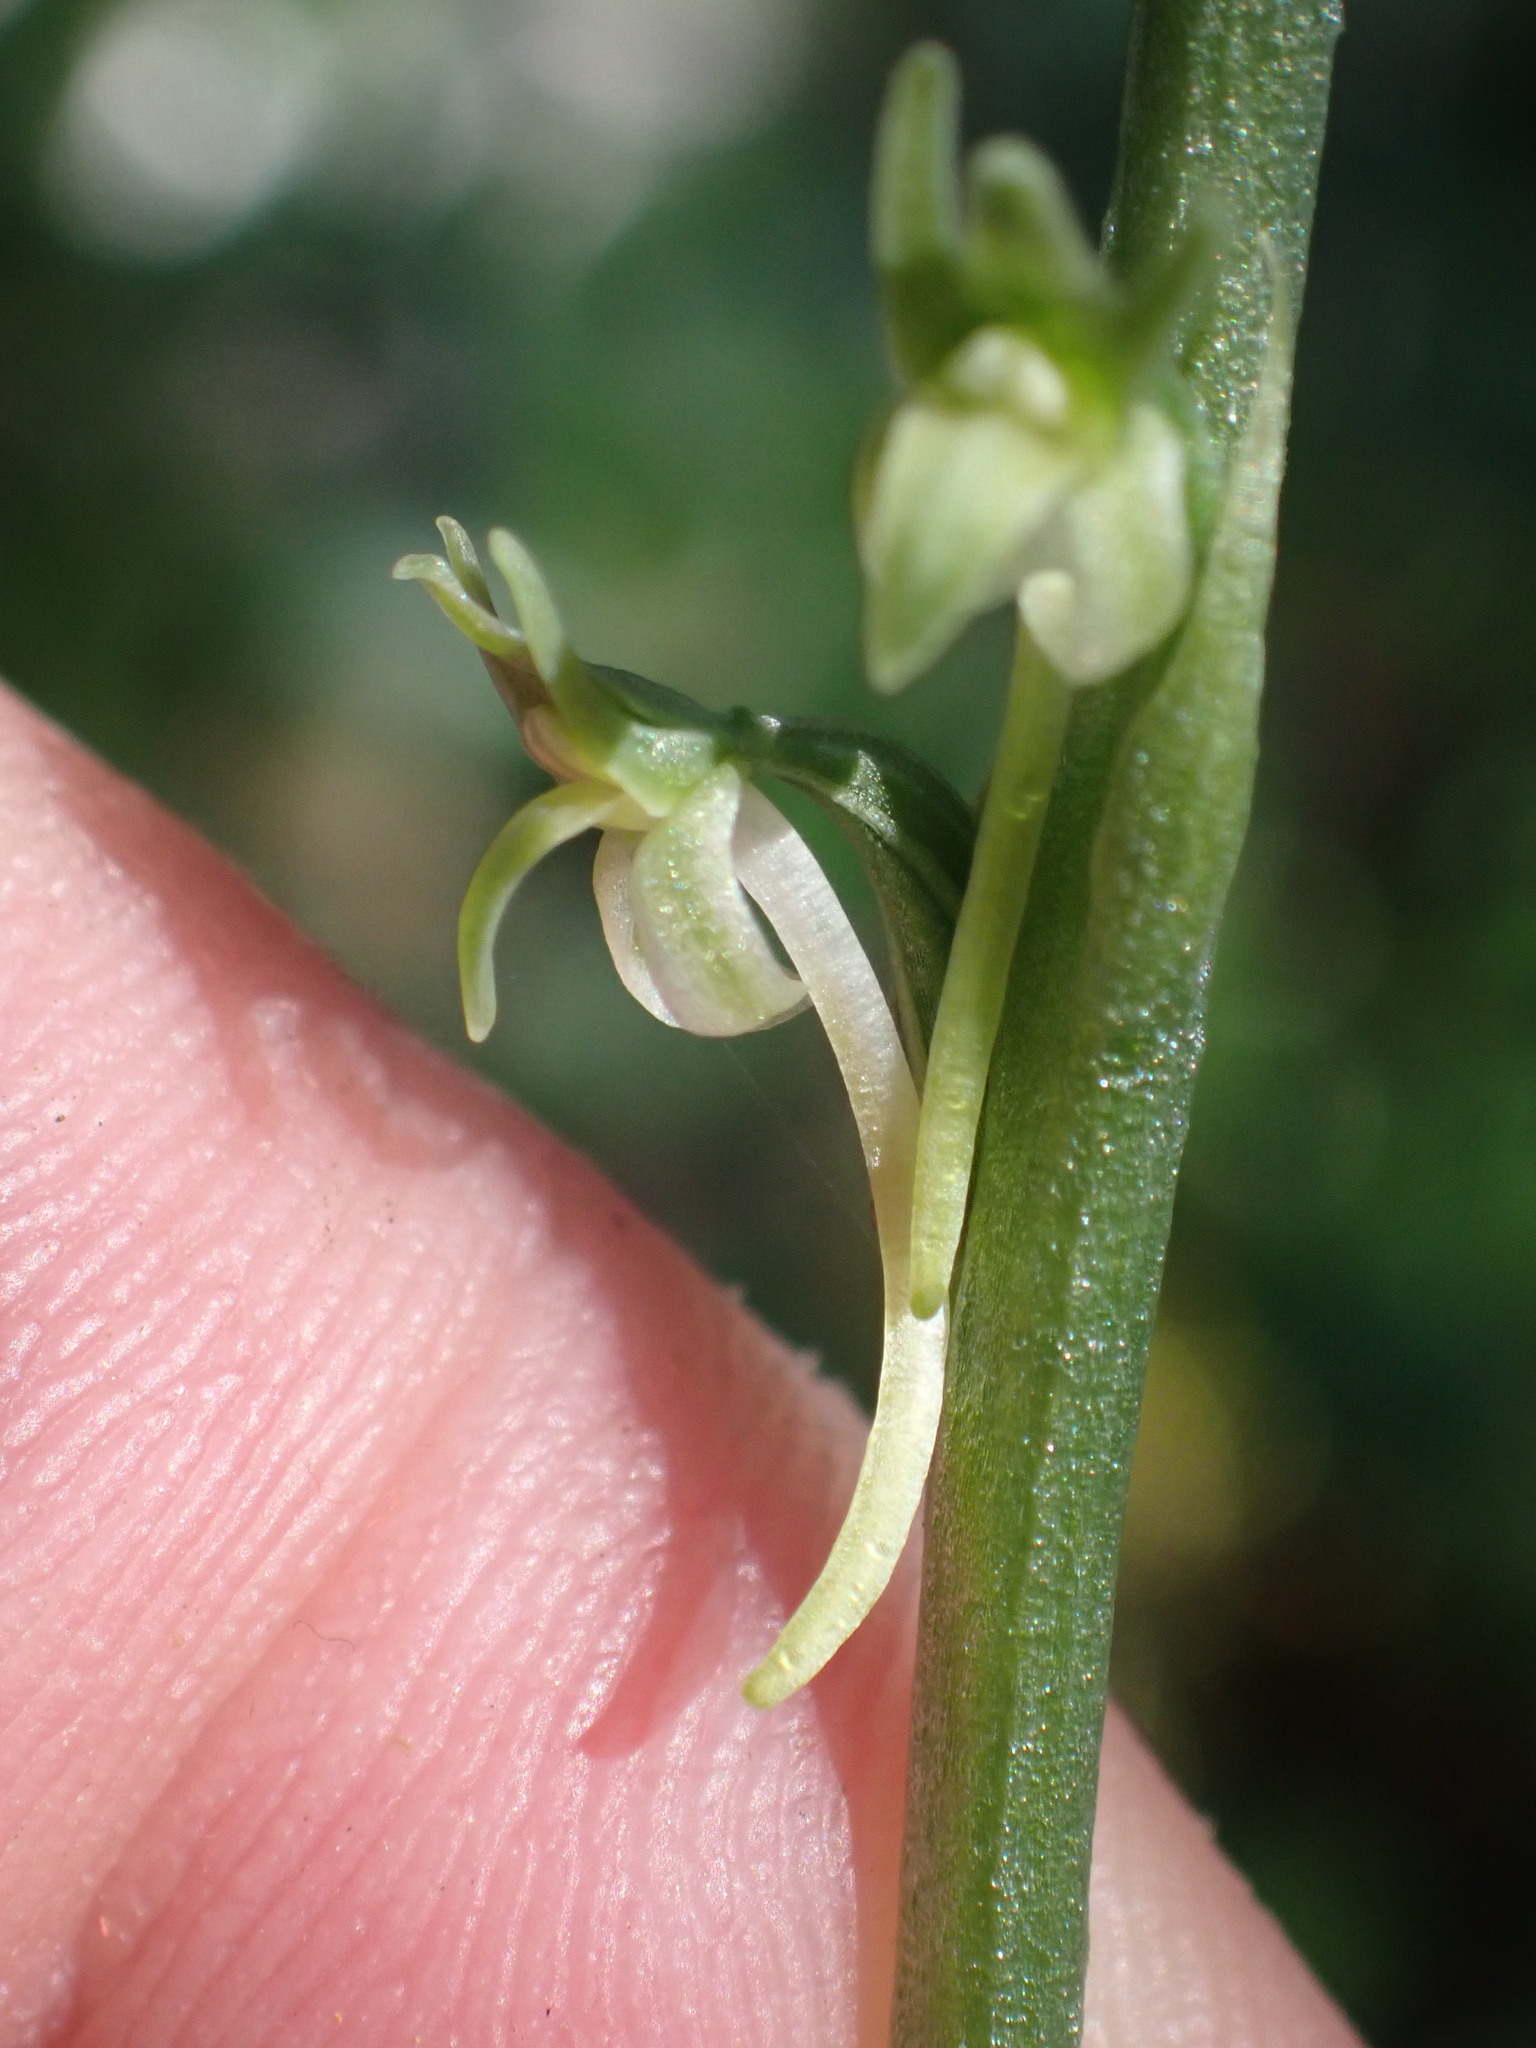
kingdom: Plantae
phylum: Tracheophyta
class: Liliopsida
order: Asparagales
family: Orchidaceae
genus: Platanthera
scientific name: Platanthera elongata
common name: Dense-flowered rein orchid
